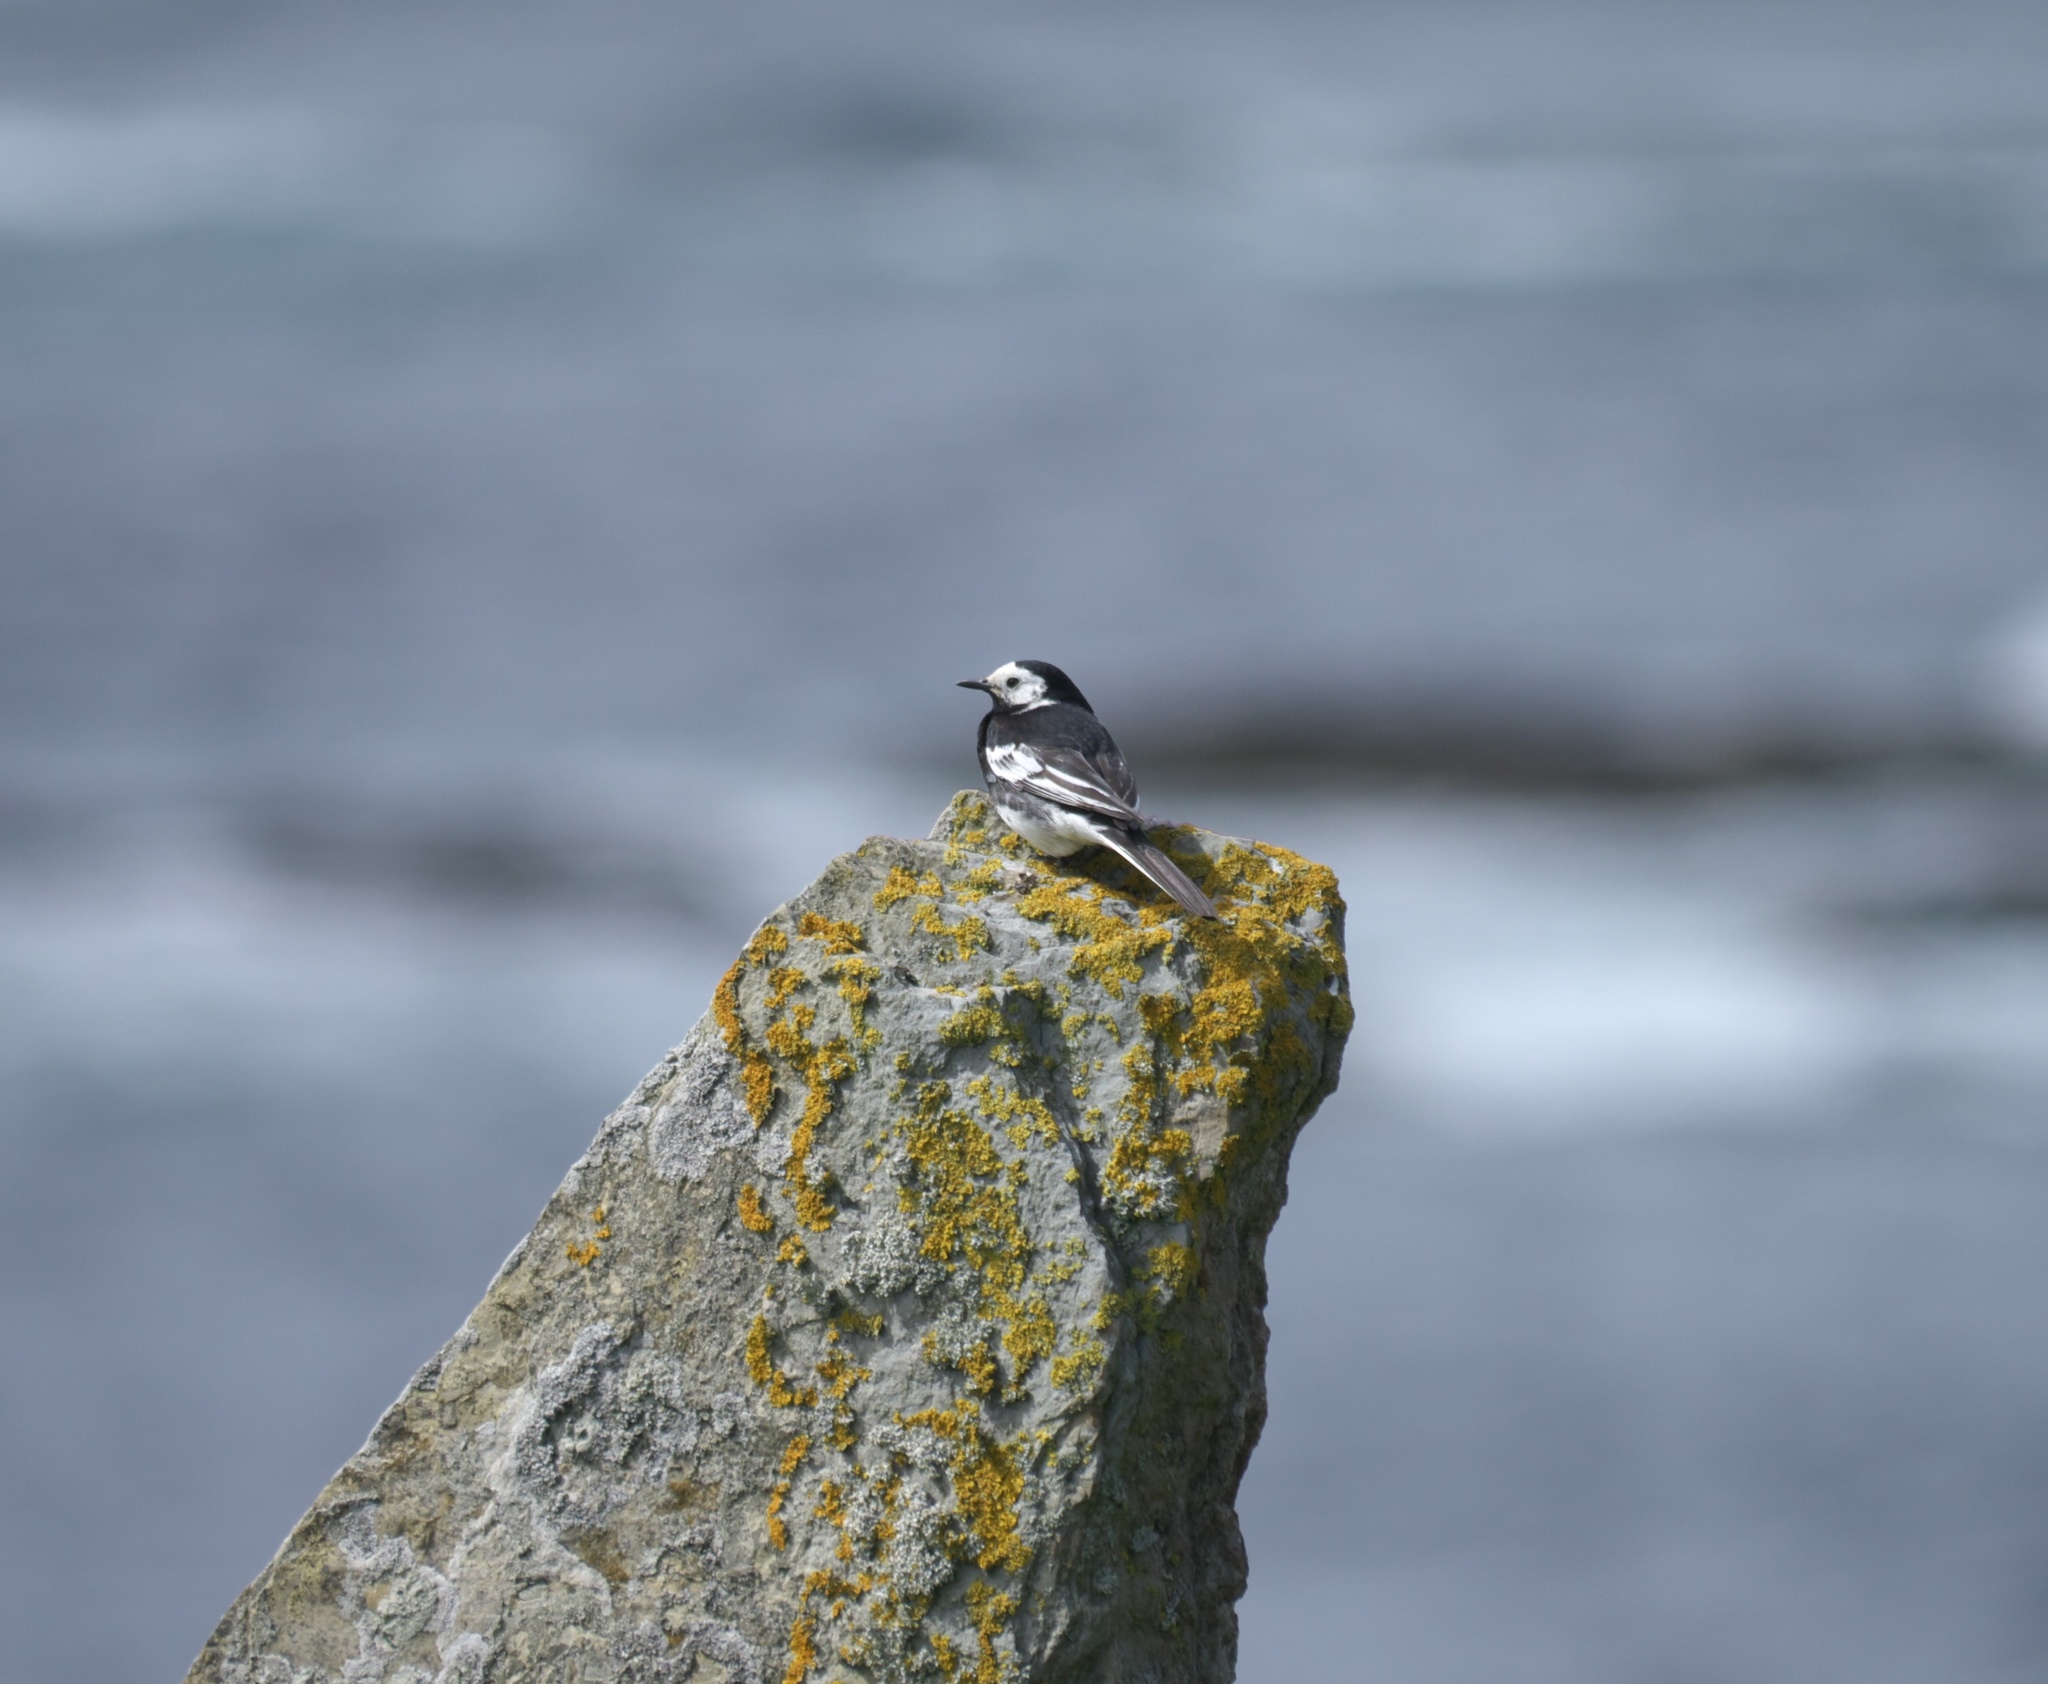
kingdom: Animalia
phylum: Chordata
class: Aves
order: Passeriformes
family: Motacillidae
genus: Motacilla
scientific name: Motacilla alba
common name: White wagtail
